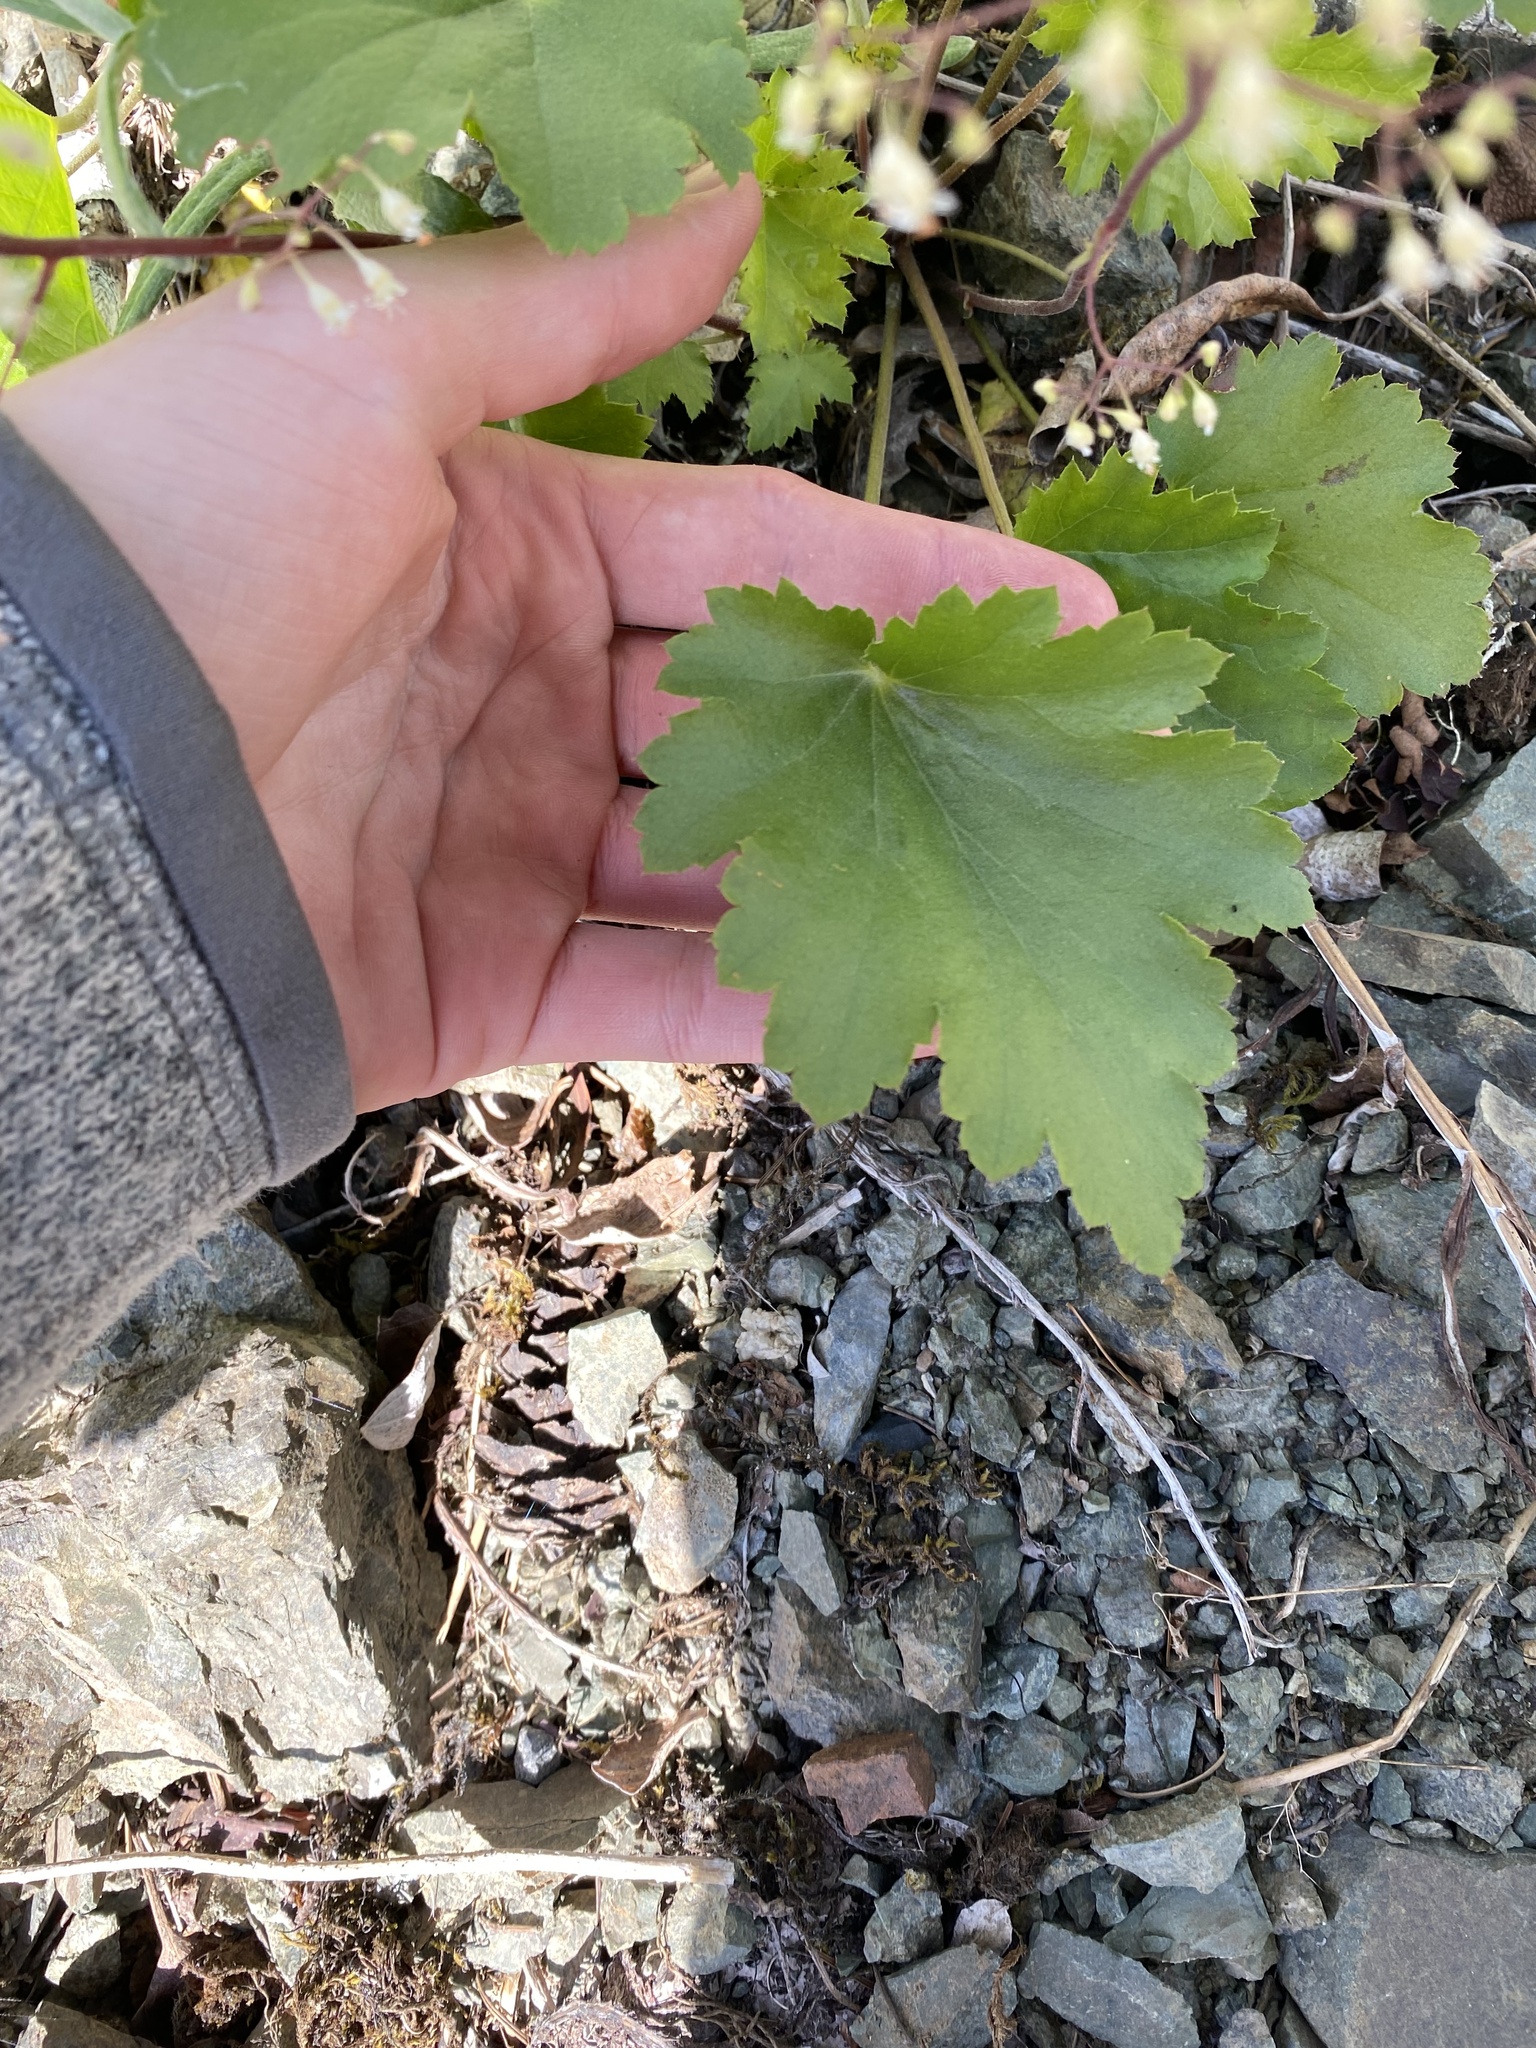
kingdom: Plantae
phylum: Tracheophyta
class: Magnoliopsida
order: Saxifragales
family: Saxifragaceae
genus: Heuchera
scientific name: Heuchera micrantha
